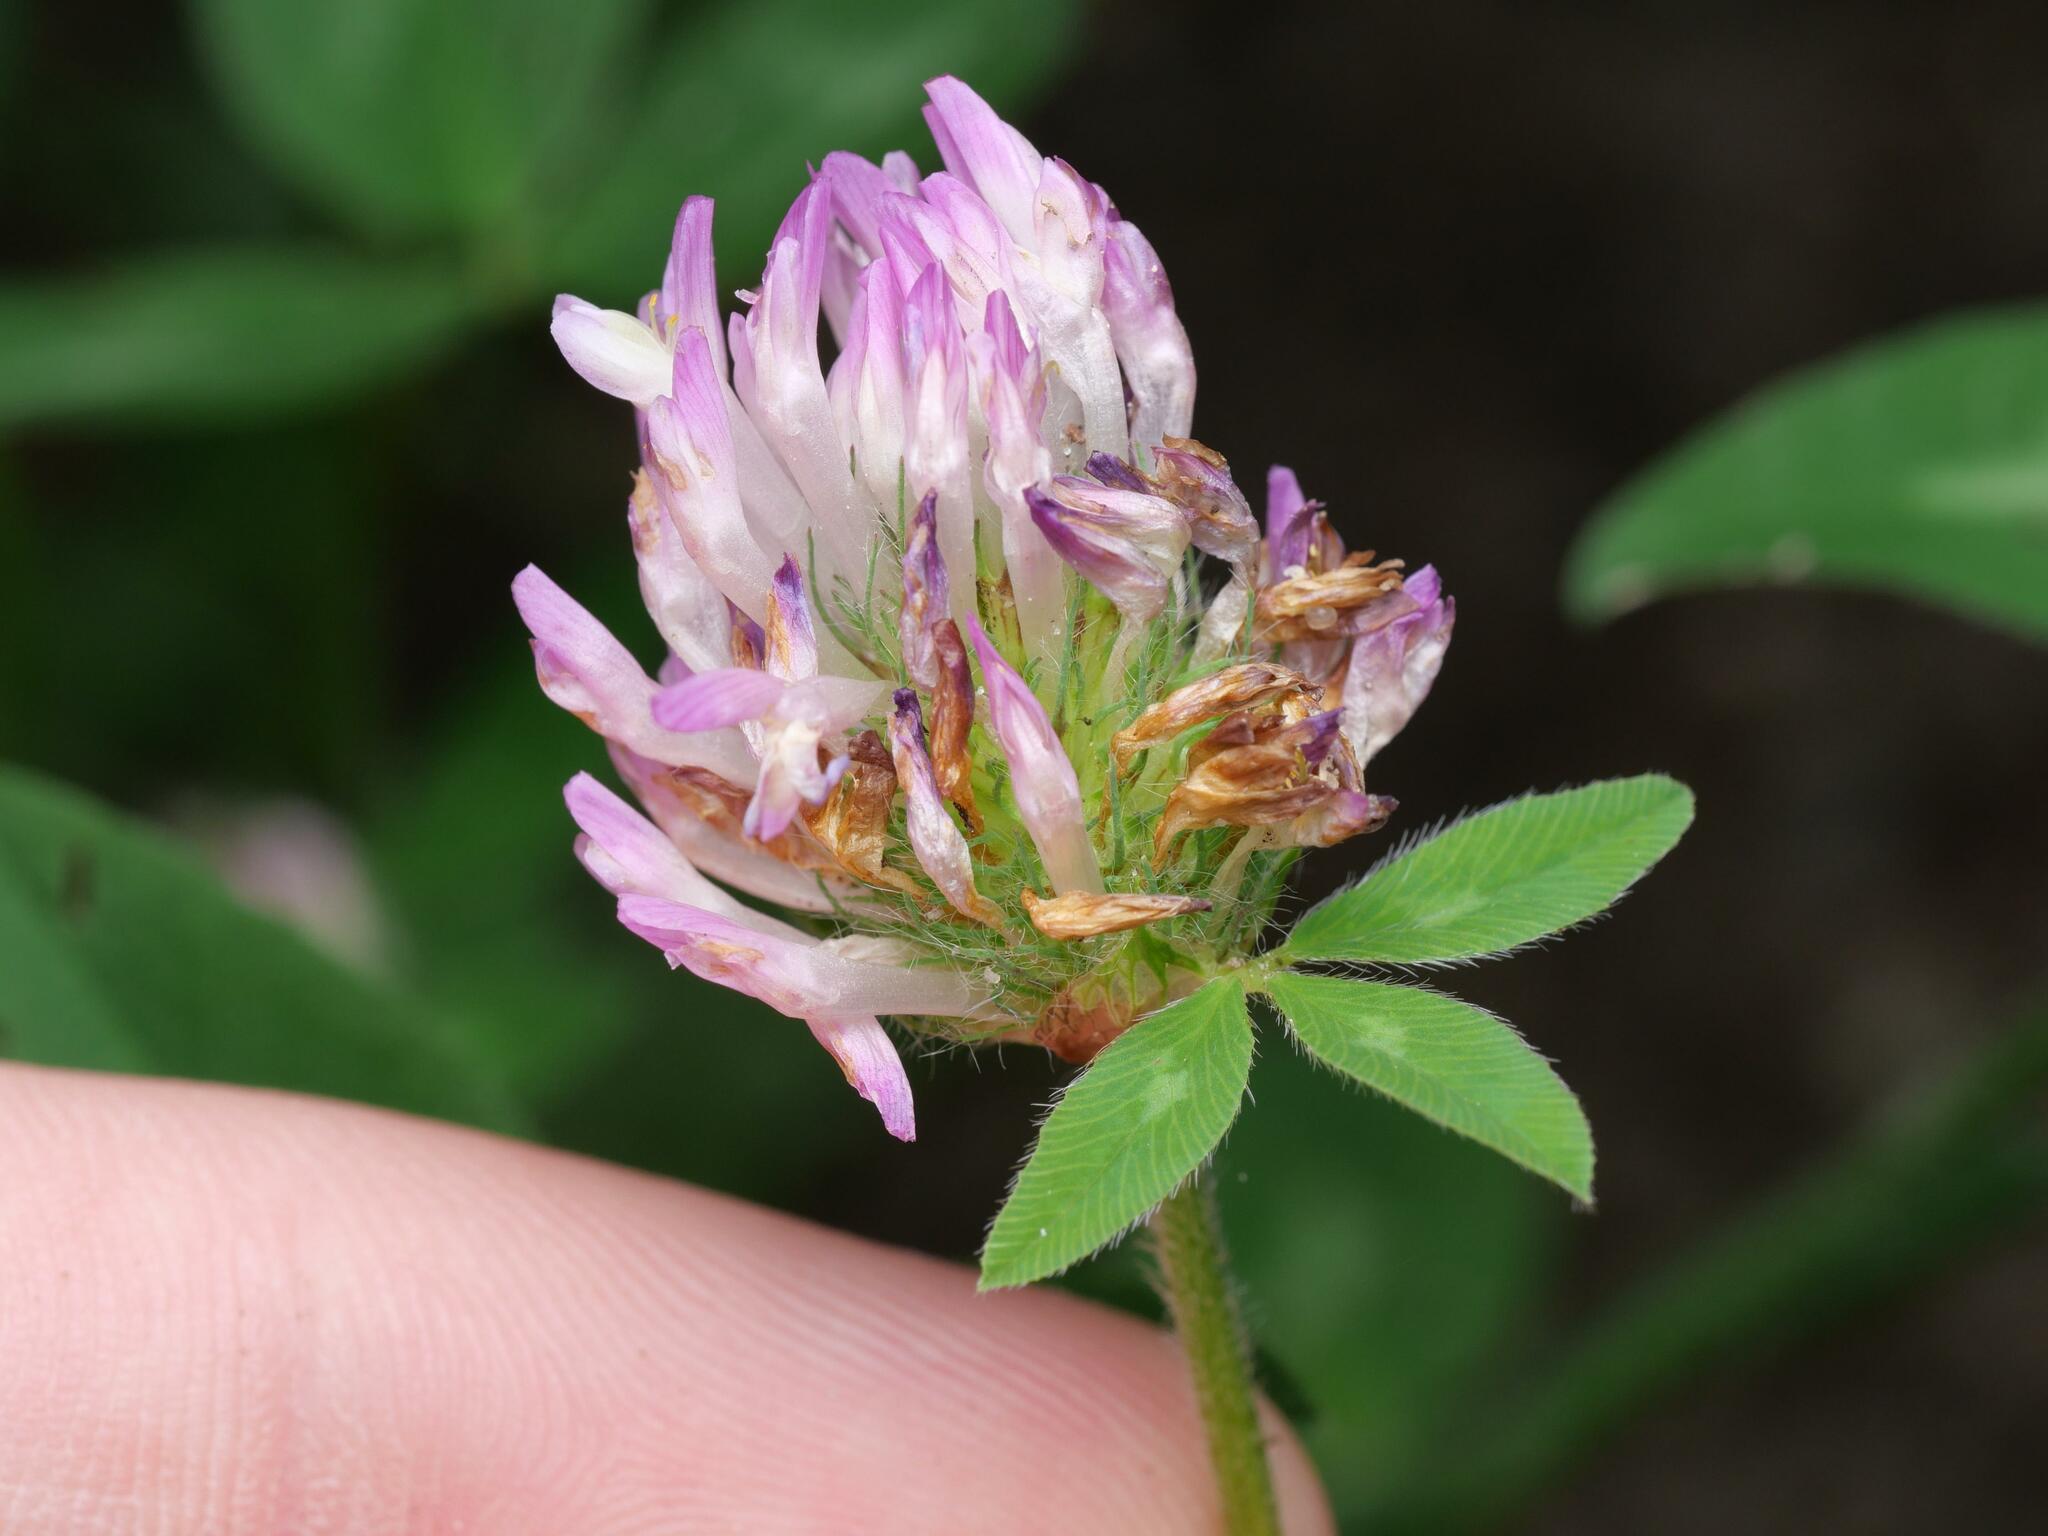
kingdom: Plantae
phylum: Tracheophyta
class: Magnoliopsida
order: Fabales
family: Fabaceae
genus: Trifolium
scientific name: Trifolium pratense
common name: Red clover
